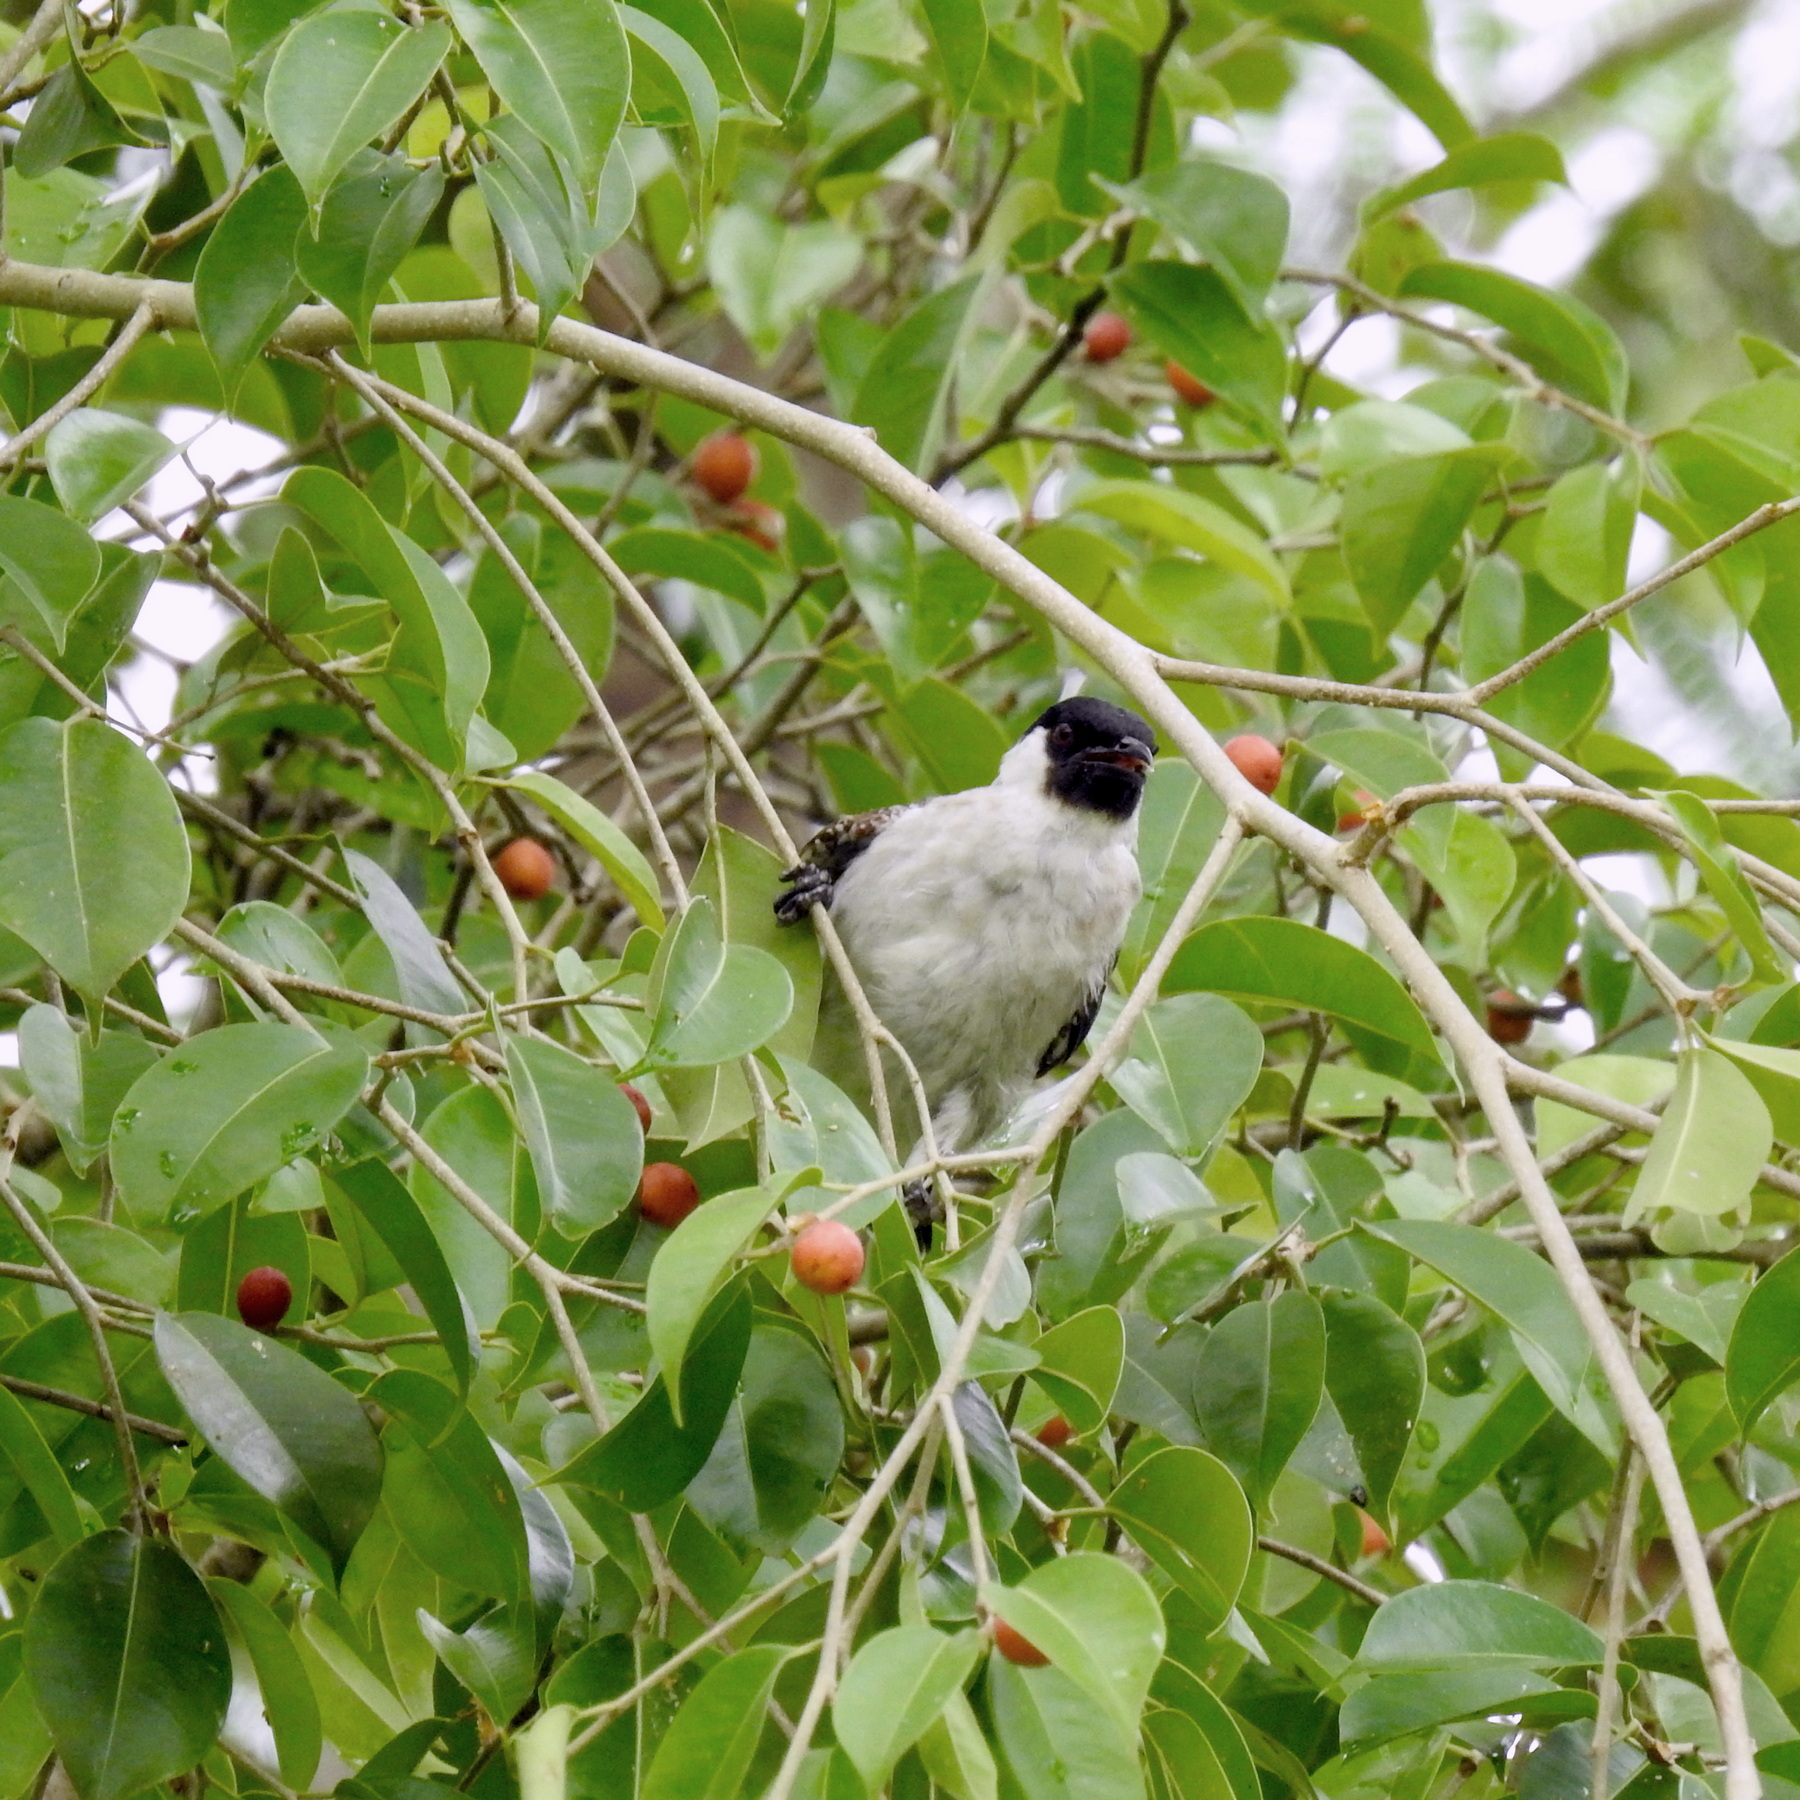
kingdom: Animalia
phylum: Chordata
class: Aves
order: Passeriformes
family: Pycnonotidae
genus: Pycnonotus
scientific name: Pycnonotus aurigaster
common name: Sooty-headed bulbul
